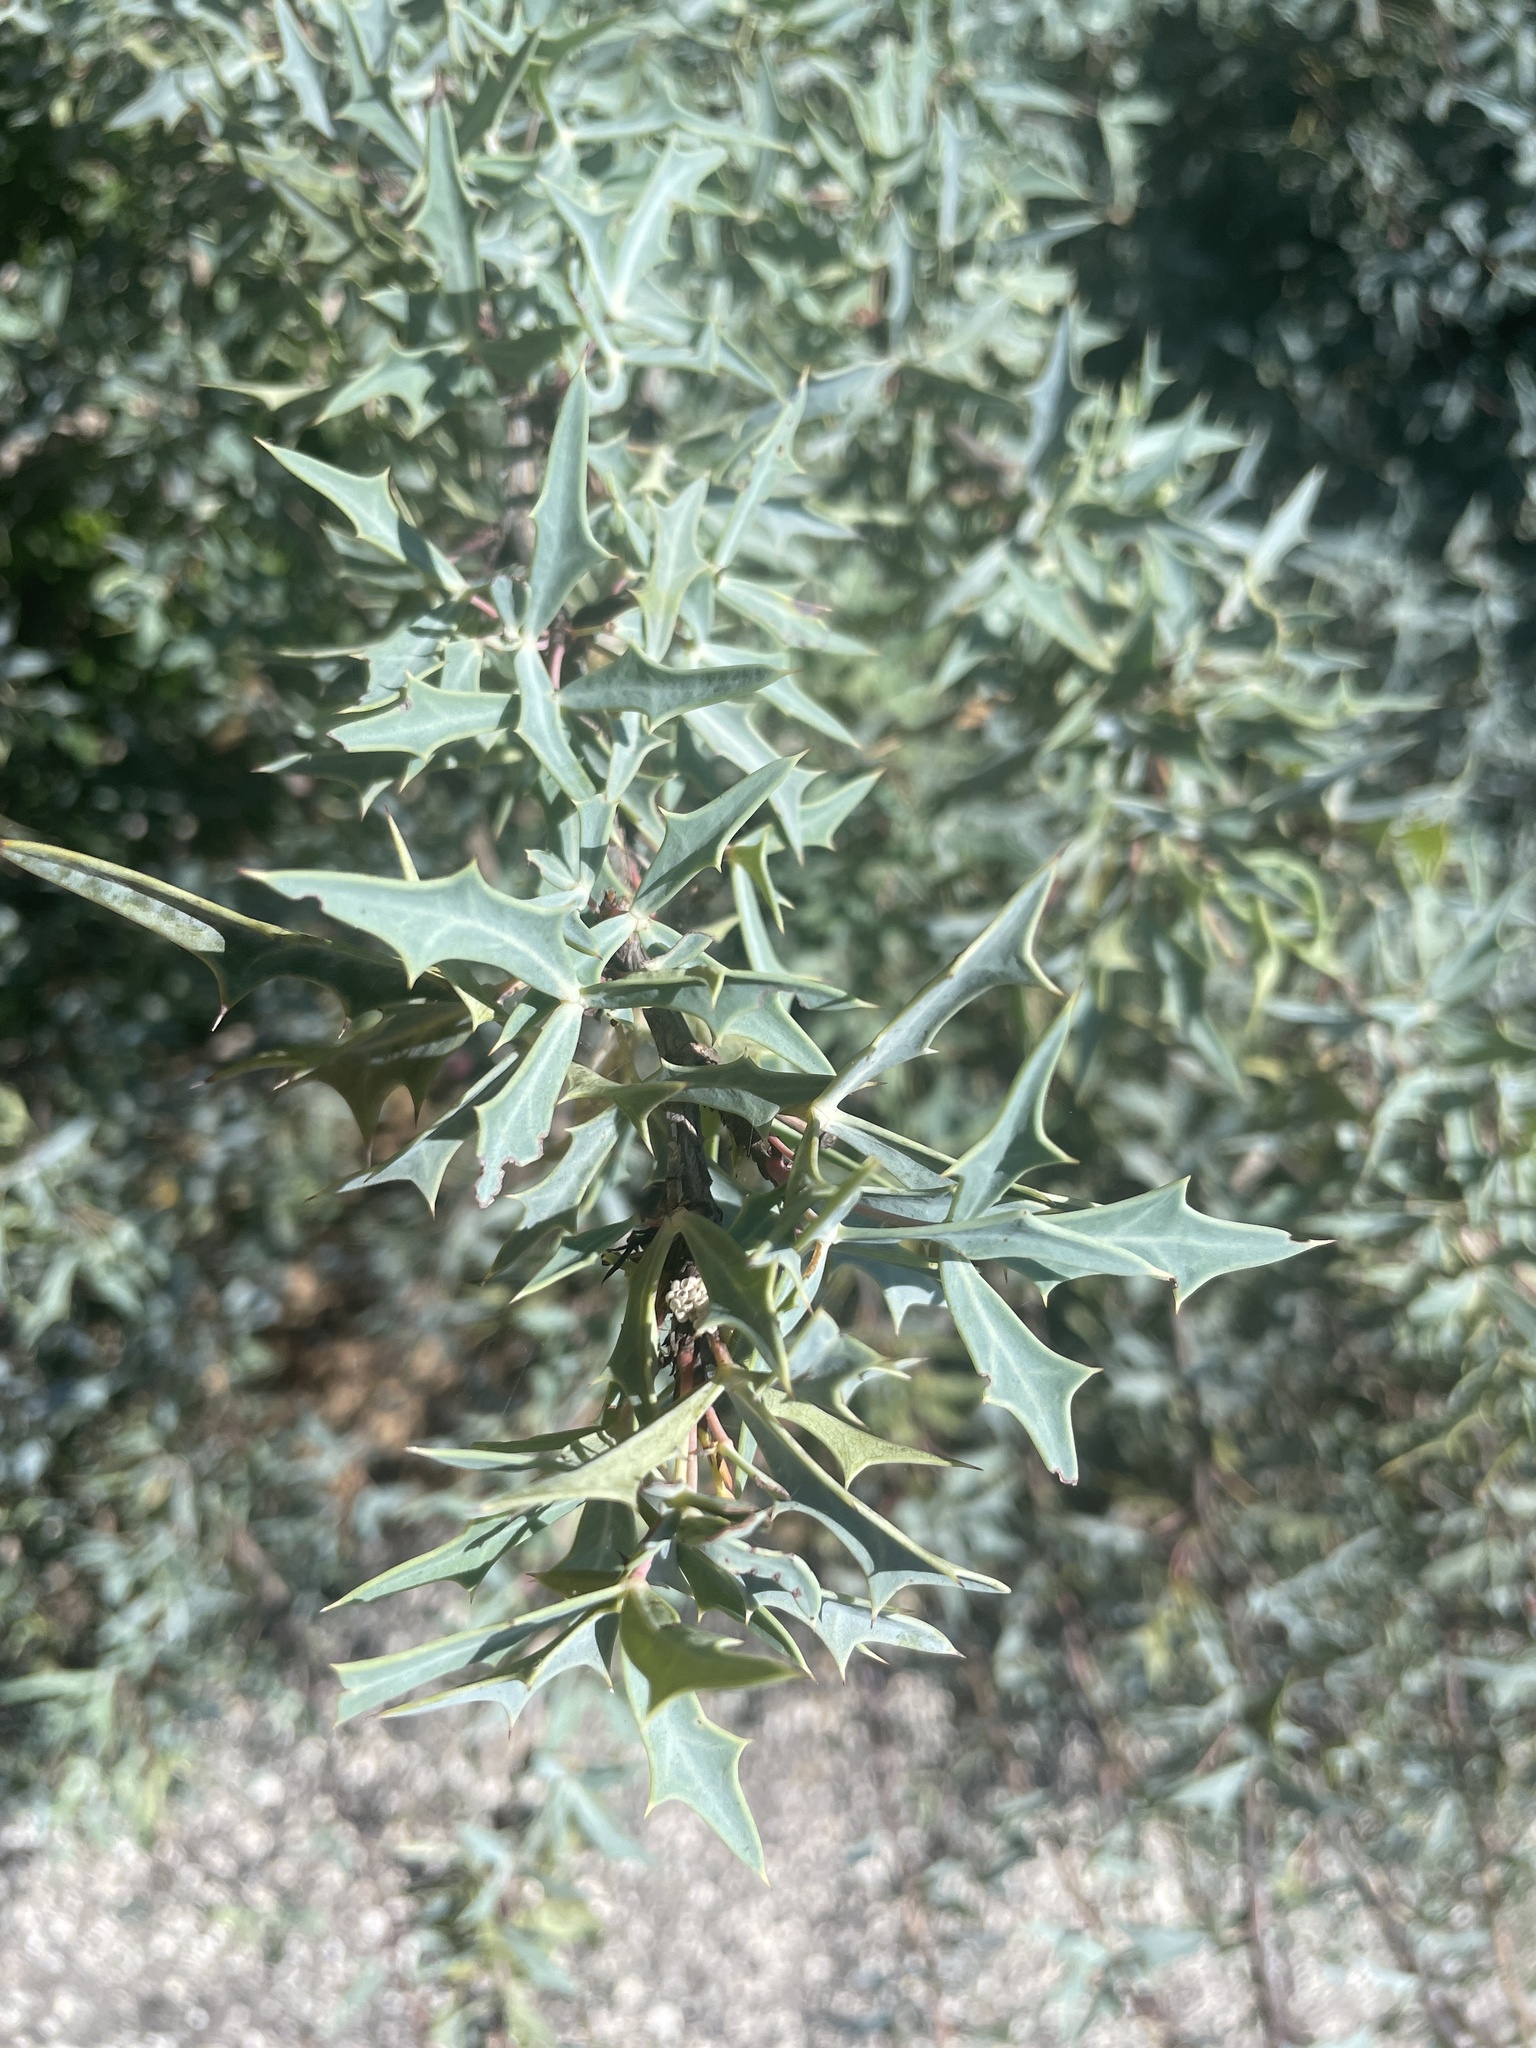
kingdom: Plantae
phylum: Tracheophyta
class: Magnoliopsida
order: Ranunculales
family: Berberidaceae
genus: Alloberberis
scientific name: Alloberberis trifoliolata
